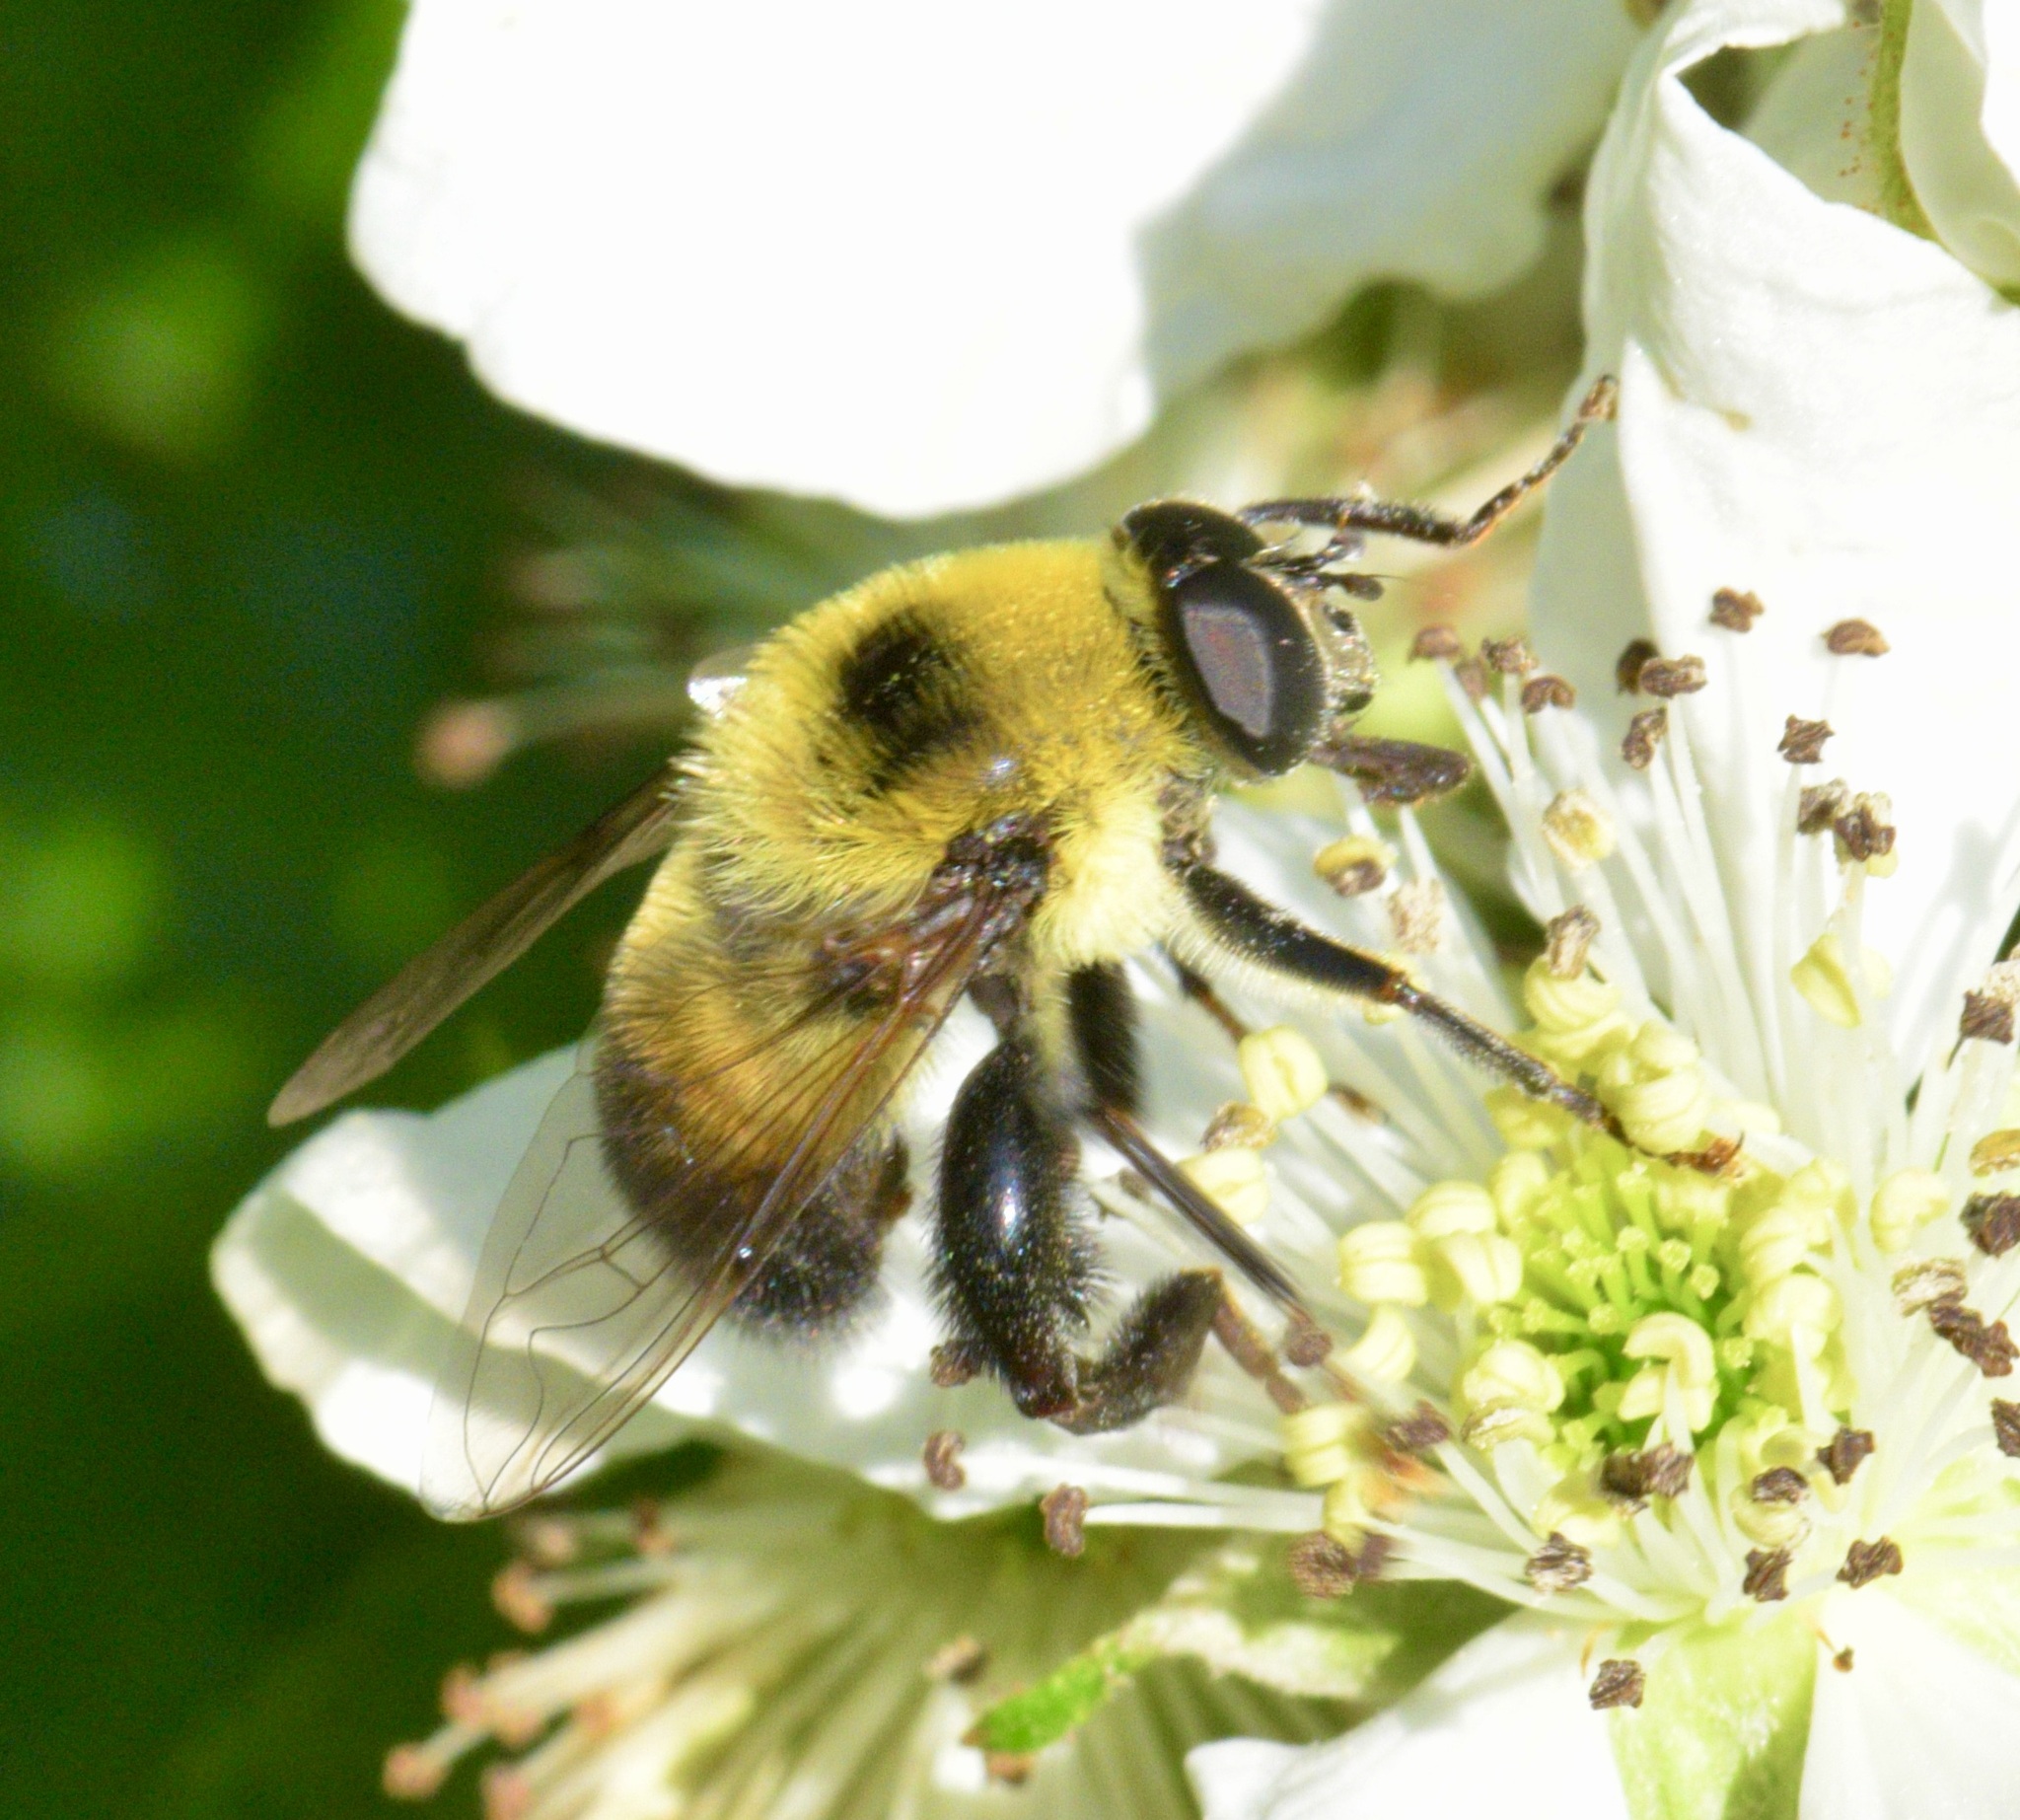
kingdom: Animalia
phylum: Arthropoda
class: Insecta
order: Diptera
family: Syrphidae
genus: Imatisma
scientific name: Imatisma posticata
